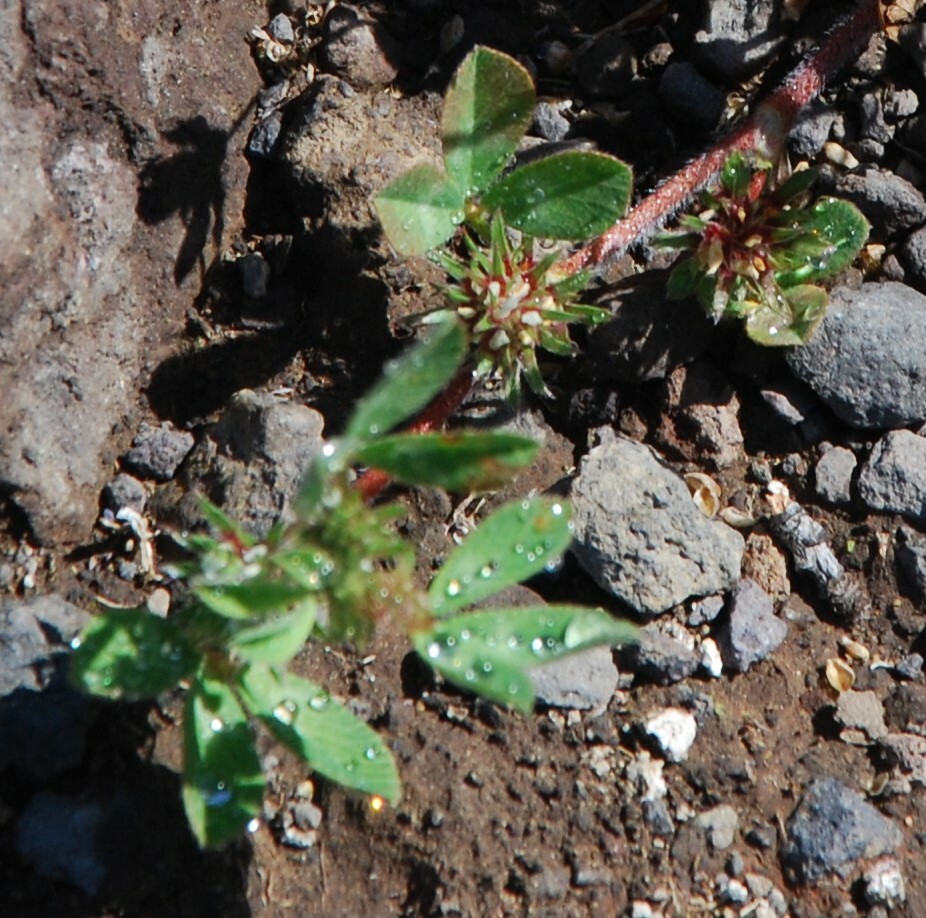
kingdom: Plantae
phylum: Tracheophyta
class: Magnoliopsida
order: Fabales
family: Fabaceae
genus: Trifolium
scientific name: Trifolium scabrum
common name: Rough clover
